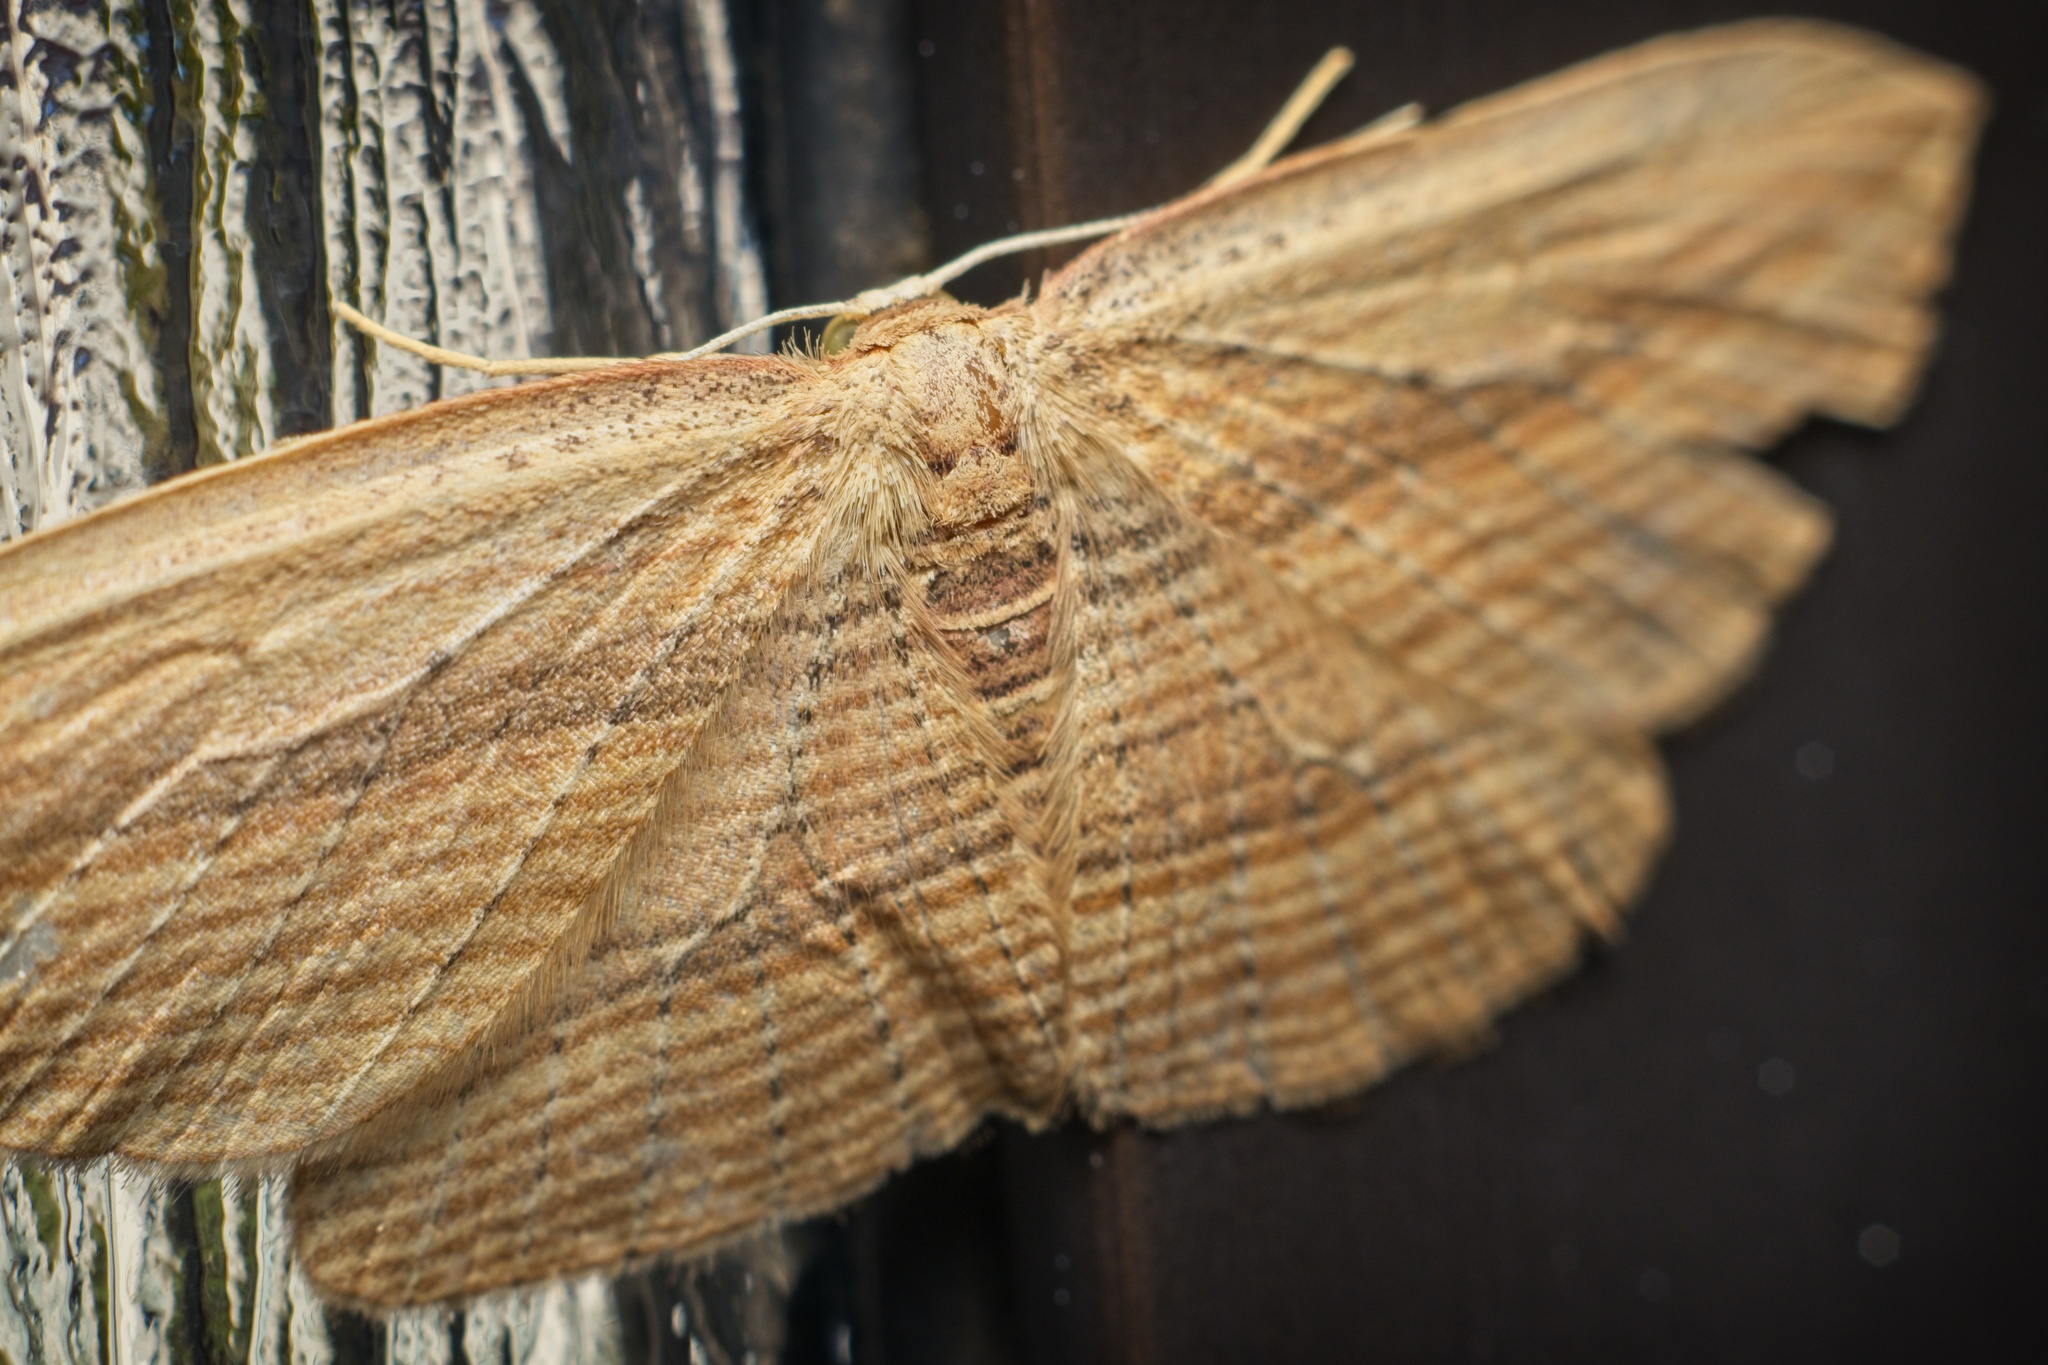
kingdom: Animalia
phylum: Arthropoda
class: Insecta
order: Lepidoptera
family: Geometridae
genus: Epiphryne
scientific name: Epiphryne verriculata
